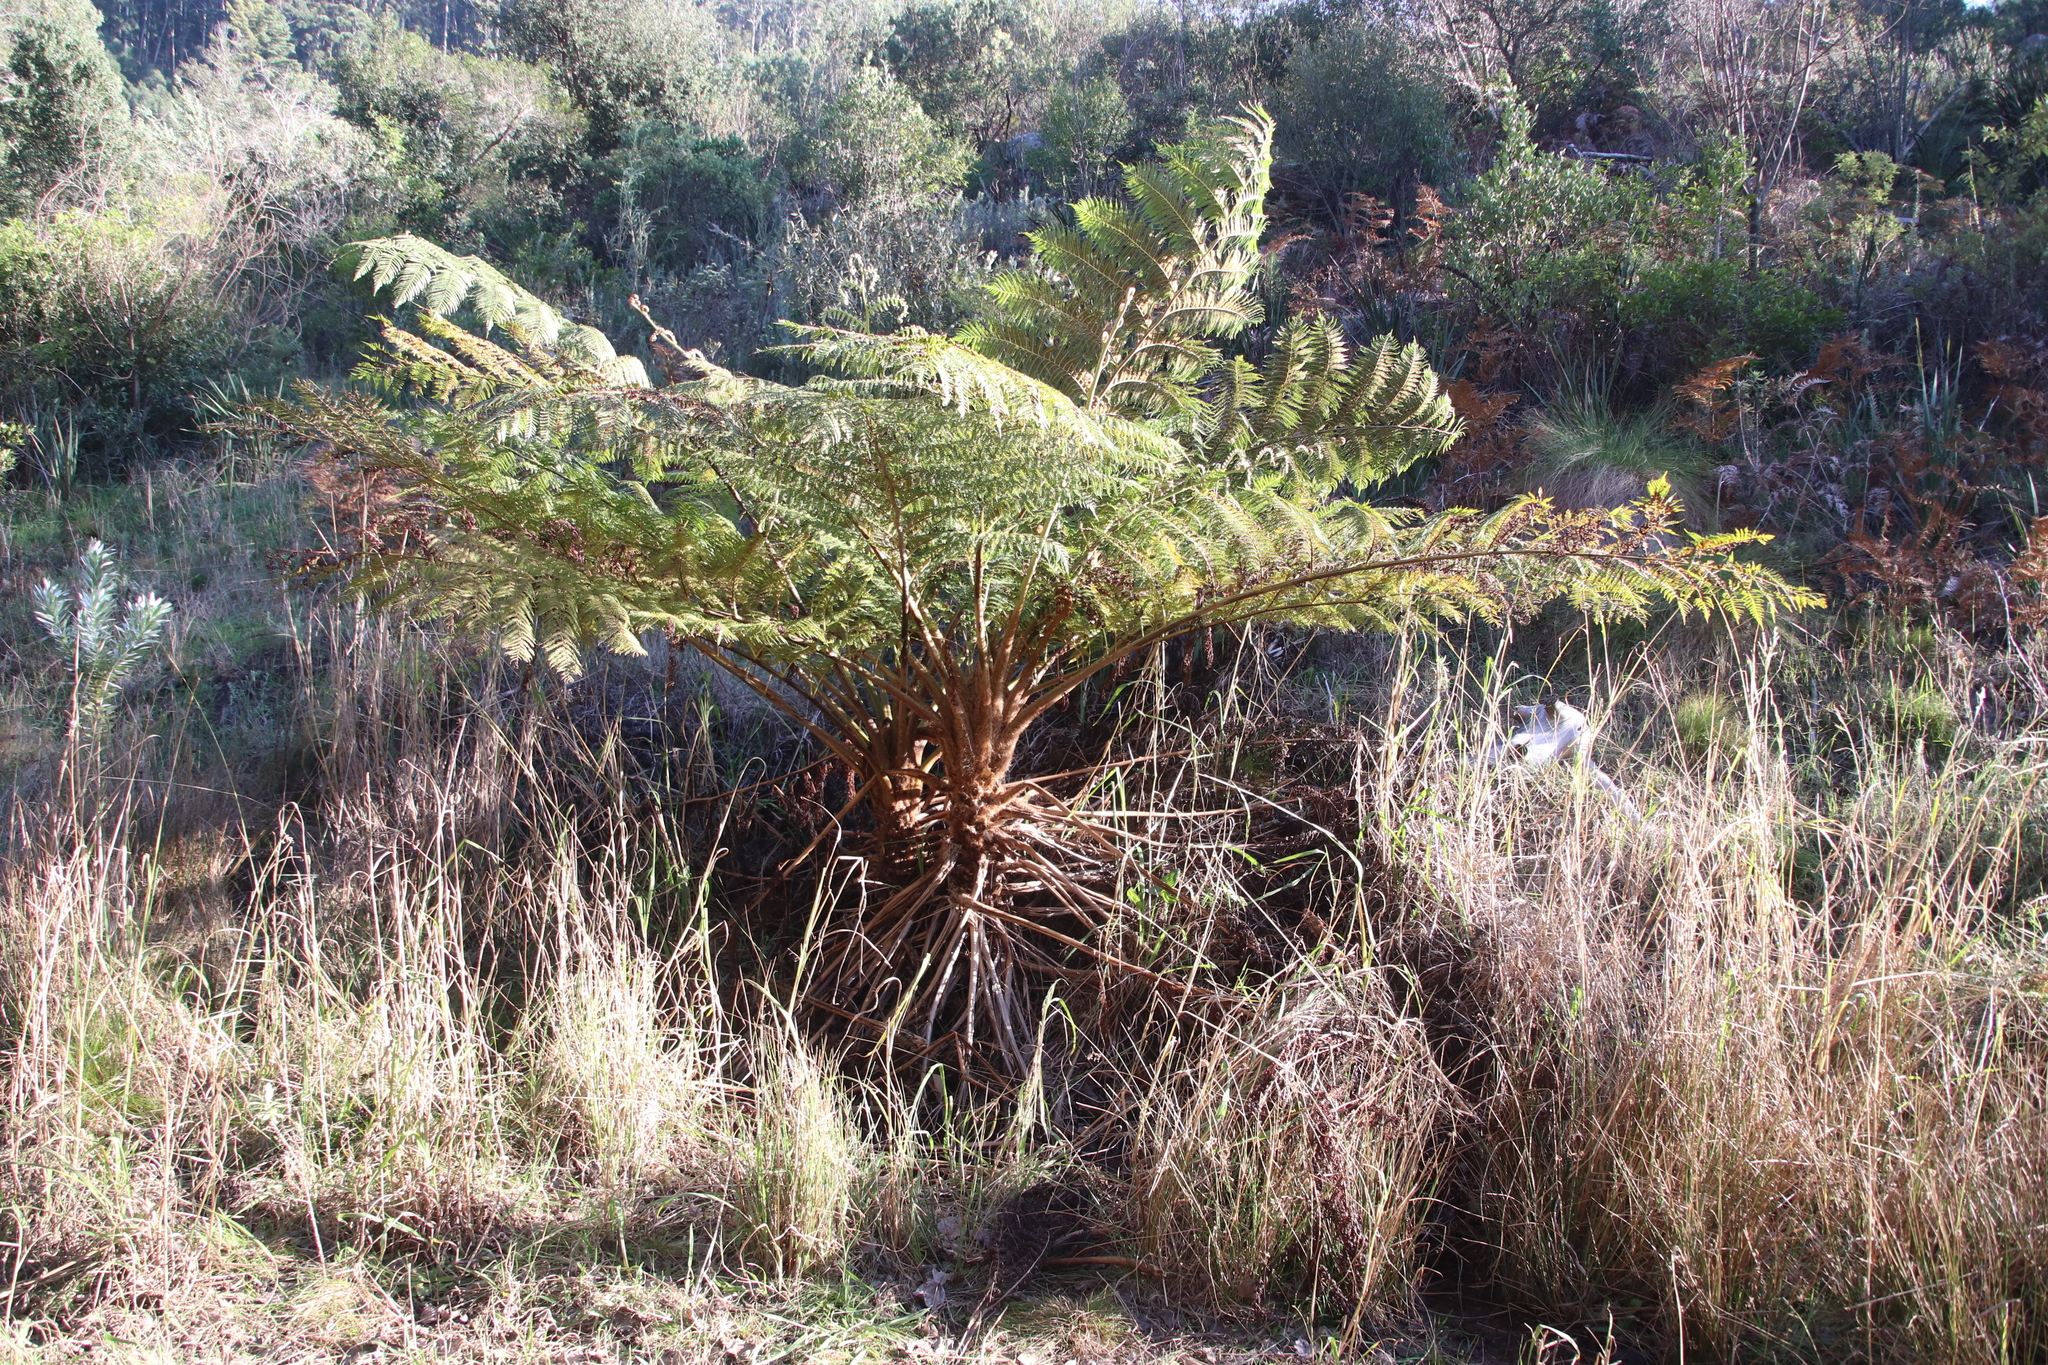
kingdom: Plantae
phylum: Tracheophyta
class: Polypodiopsida
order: Cyatheales
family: Cyatheaceae
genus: Sphaeropteris
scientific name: Sphaeropteris cooperi
